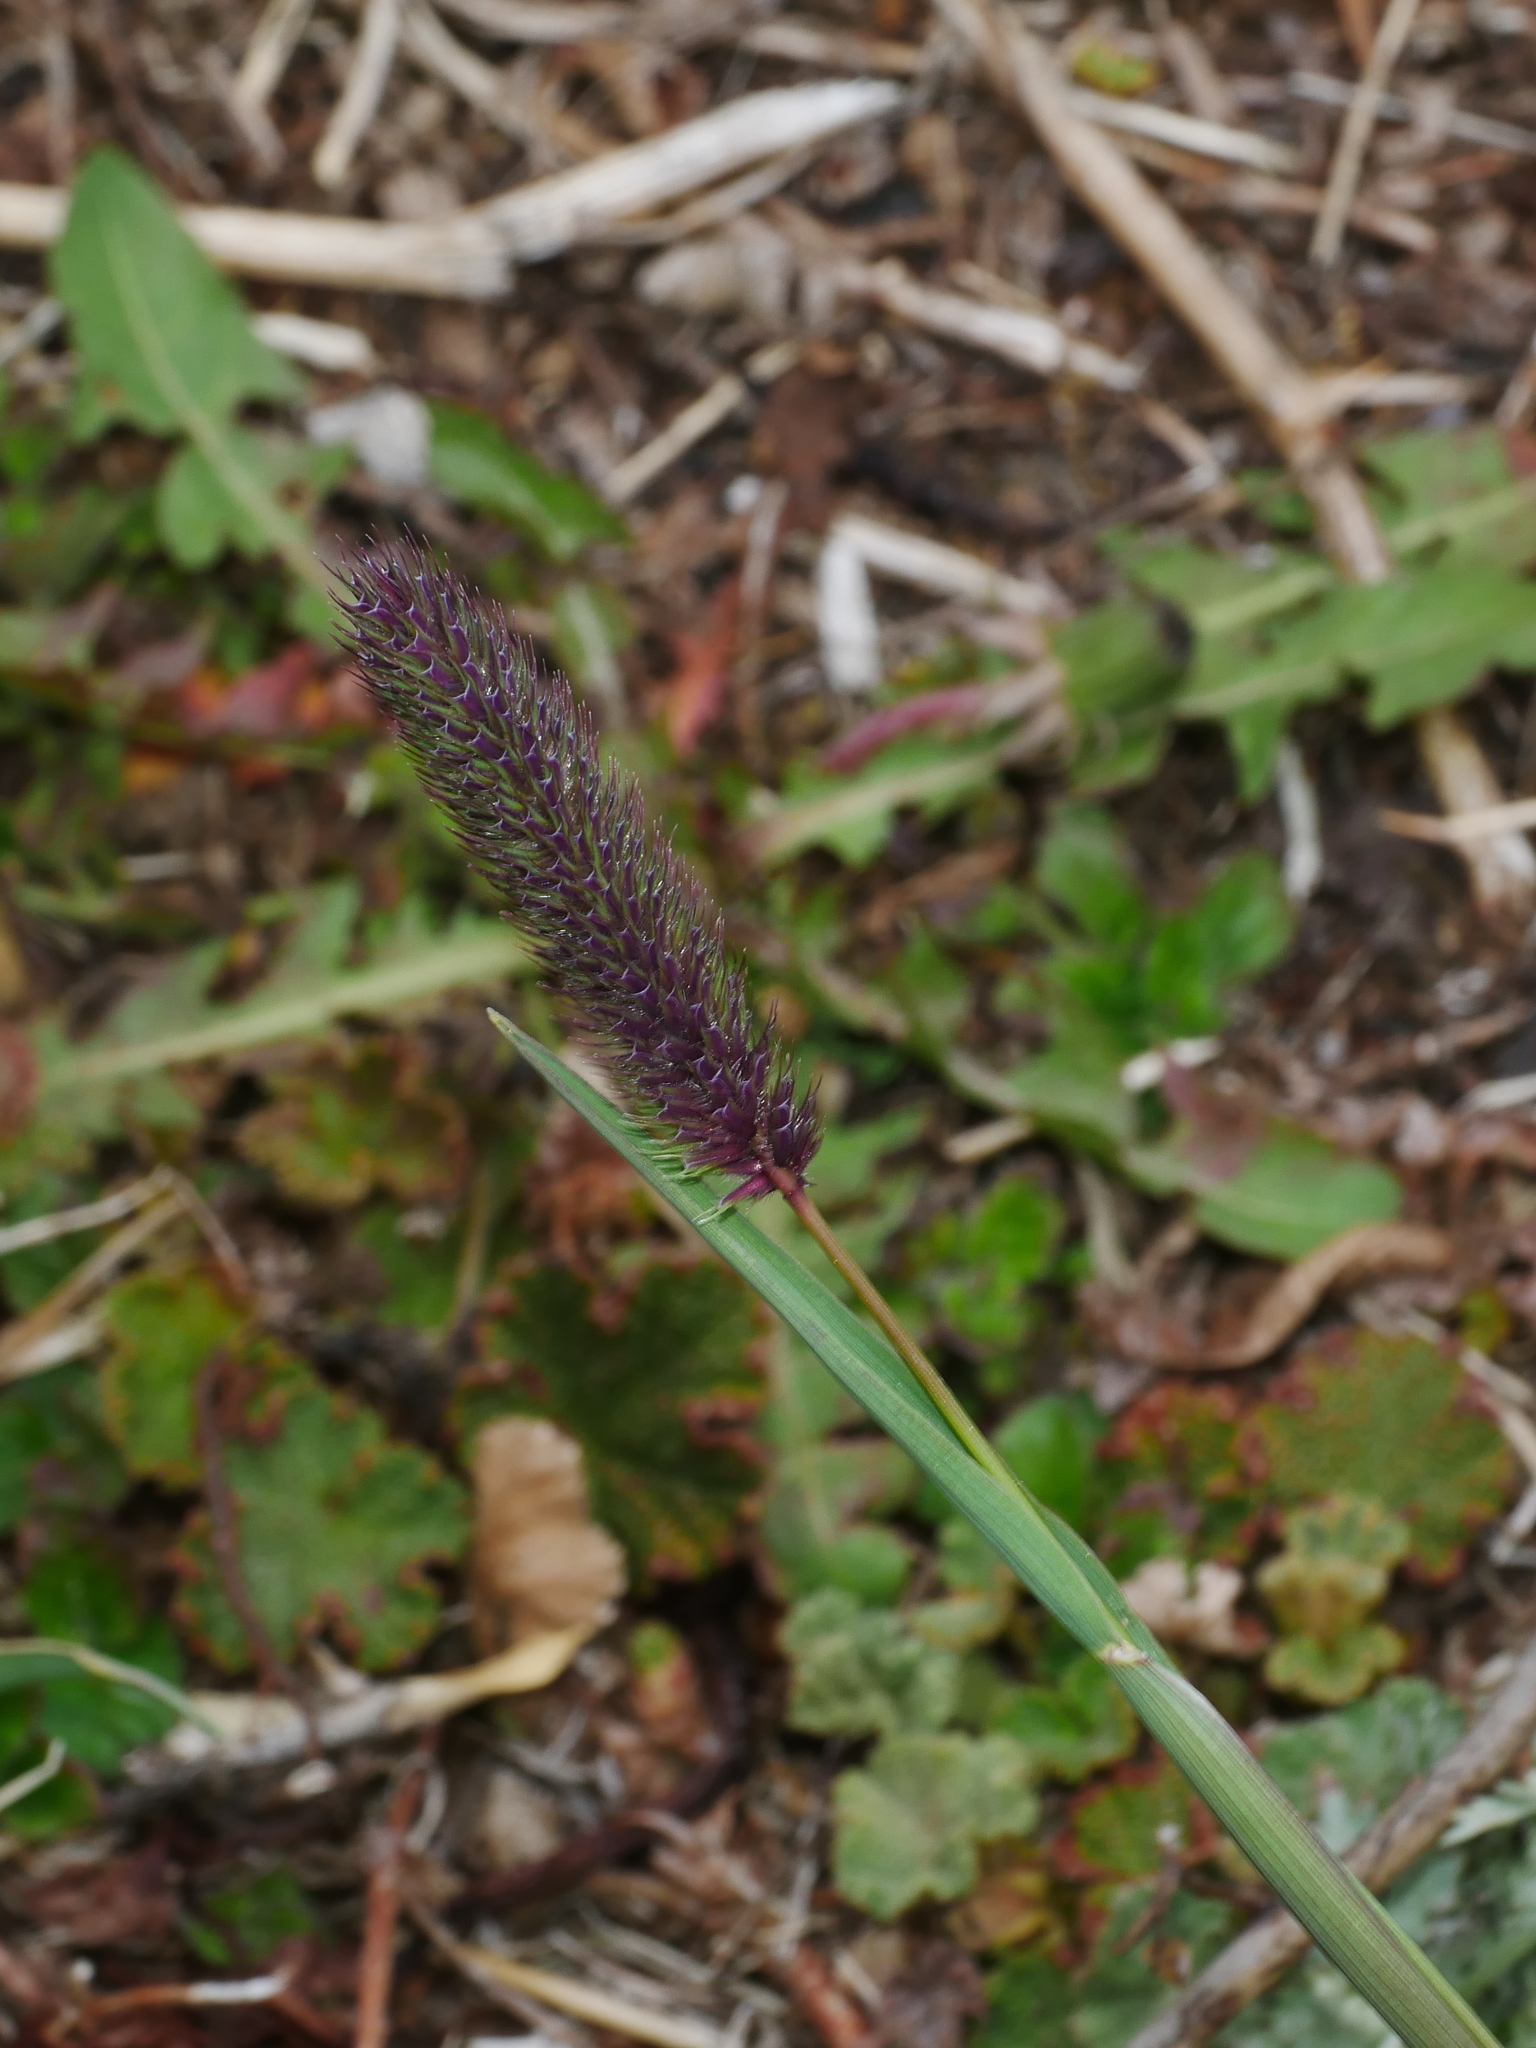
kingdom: Plantae
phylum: Tracheophyta
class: Liliopsida
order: Poales
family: Poaceae
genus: Phleum
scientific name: Phleum alpinum
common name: Alpine cat's-tail
